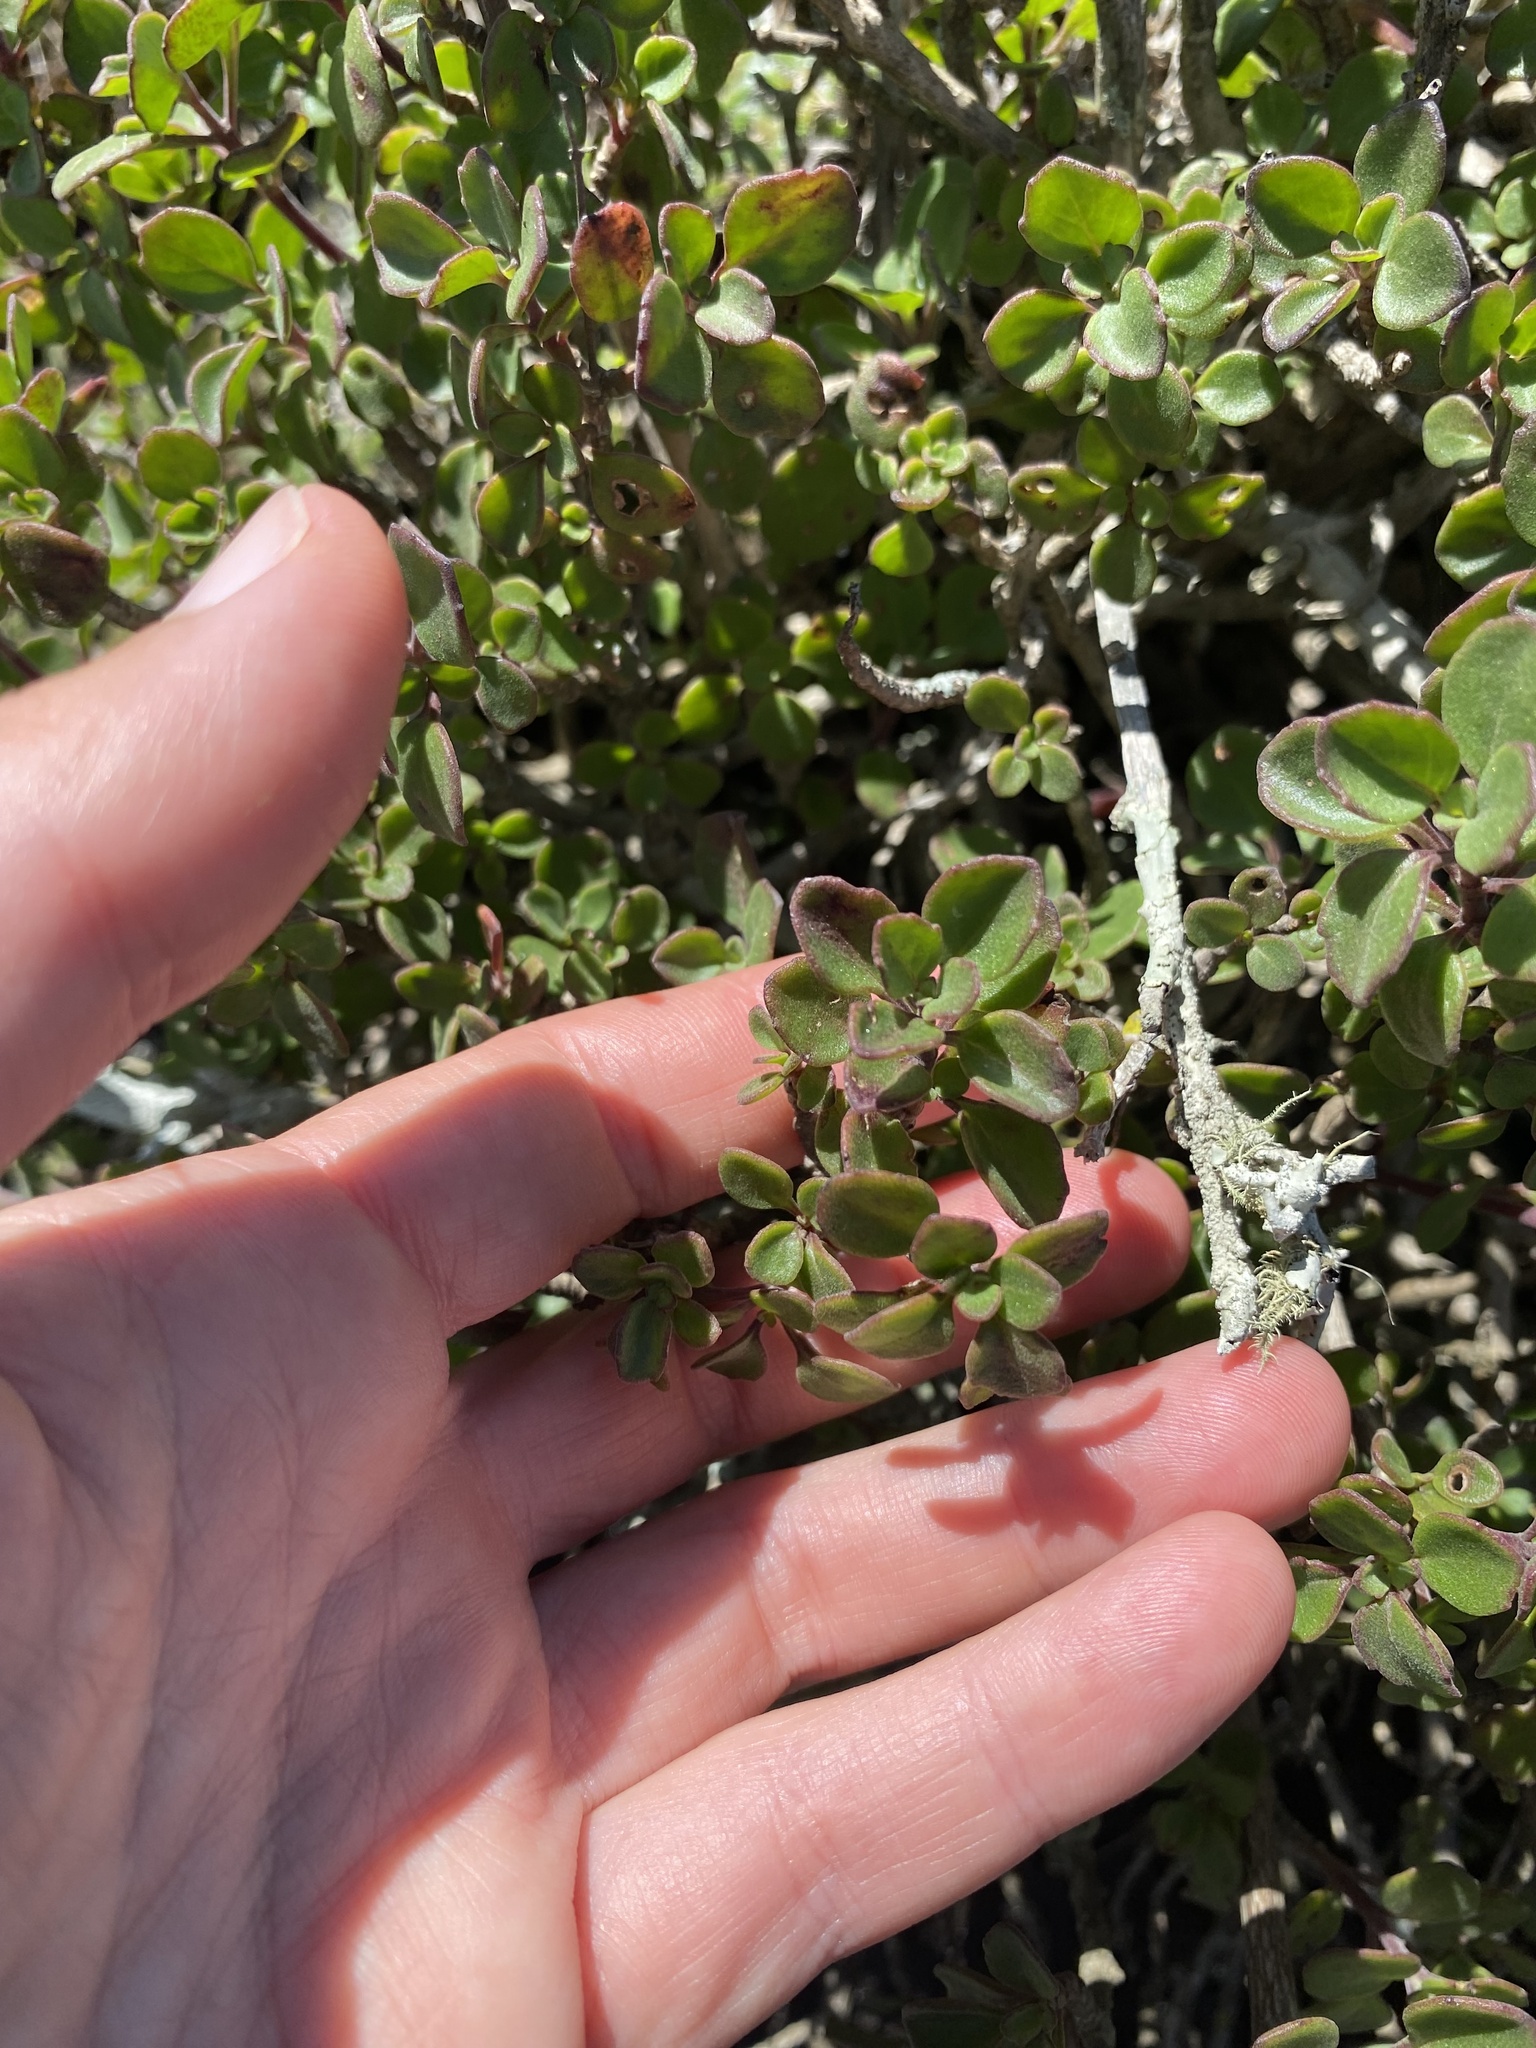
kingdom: Plantae
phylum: Tracheophyta
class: Magnoliopsida
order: Lamiales
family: Lamiaceae
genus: Aeollanthus
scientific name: Aeollanthus parvifolius
